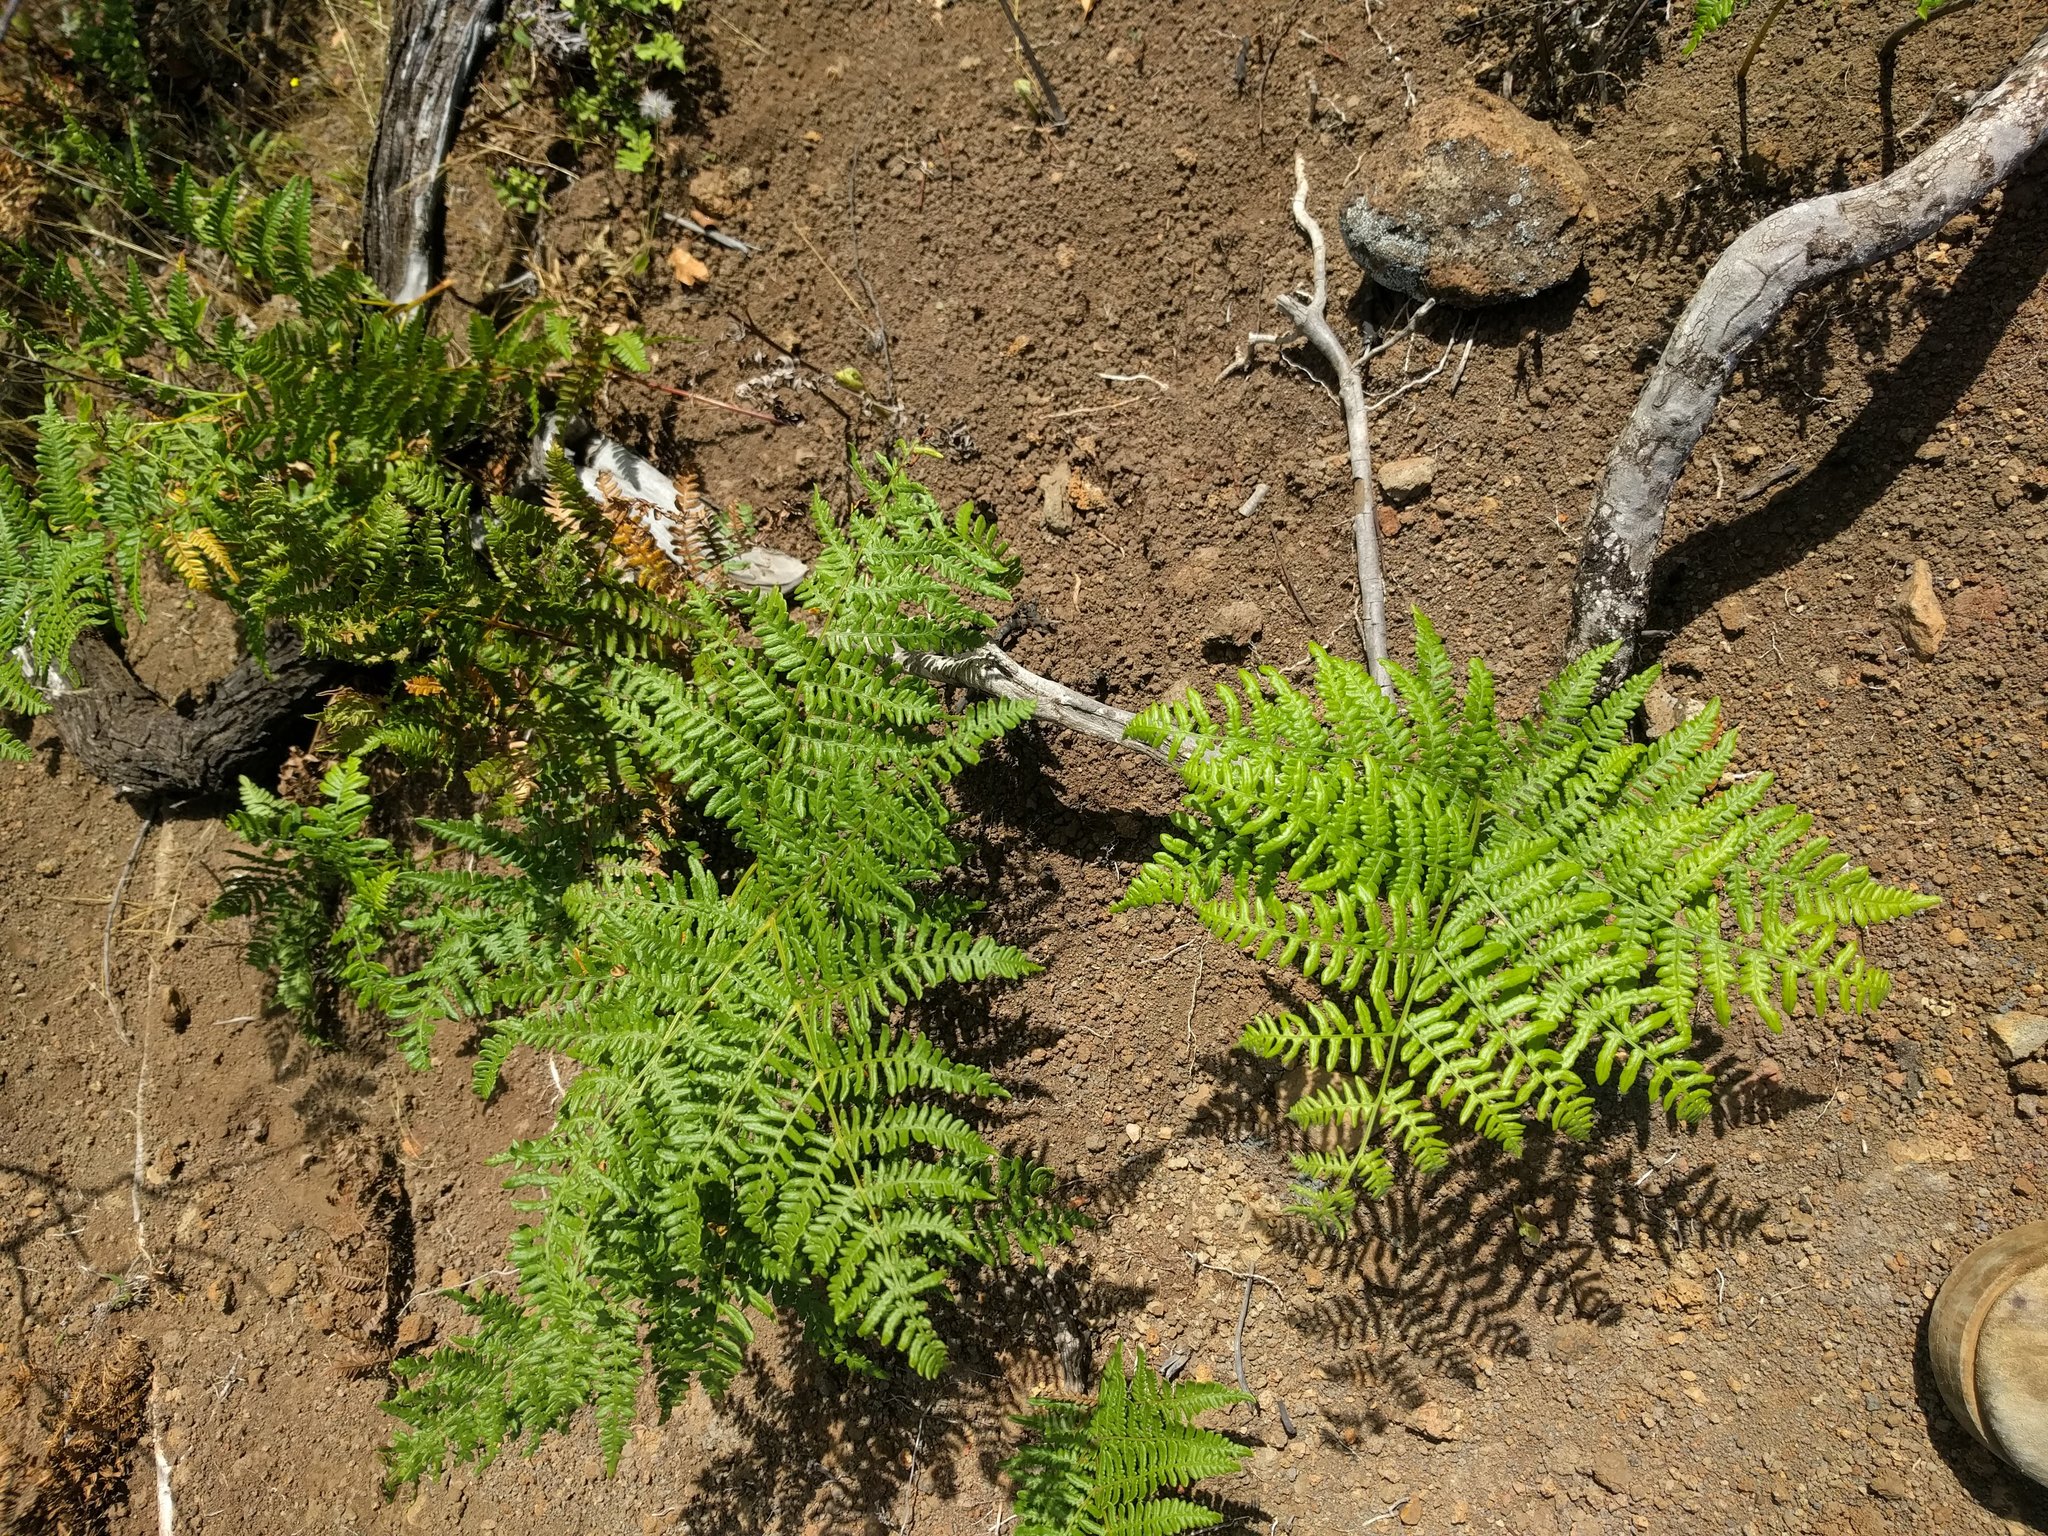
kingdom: Plantae
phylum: Tracheophyta
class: Polypodiopsida
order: Polypodiales
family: Dennstaedtiaceae
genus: Pteridium
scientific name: Pteridium aquilinum
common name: Bracken
